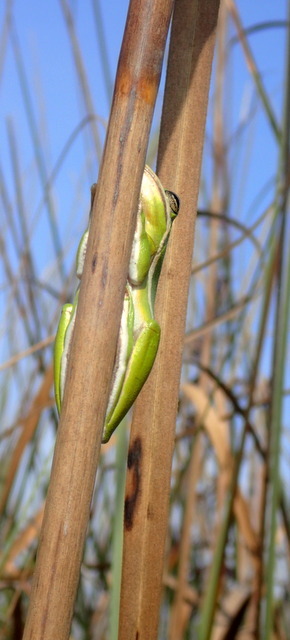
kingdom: Animalia
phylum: Chordata
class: Amphibia
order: Anura
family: Hylidae
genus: Dryophytes
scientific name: Dryophytes cinereus
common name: Green treefrog
